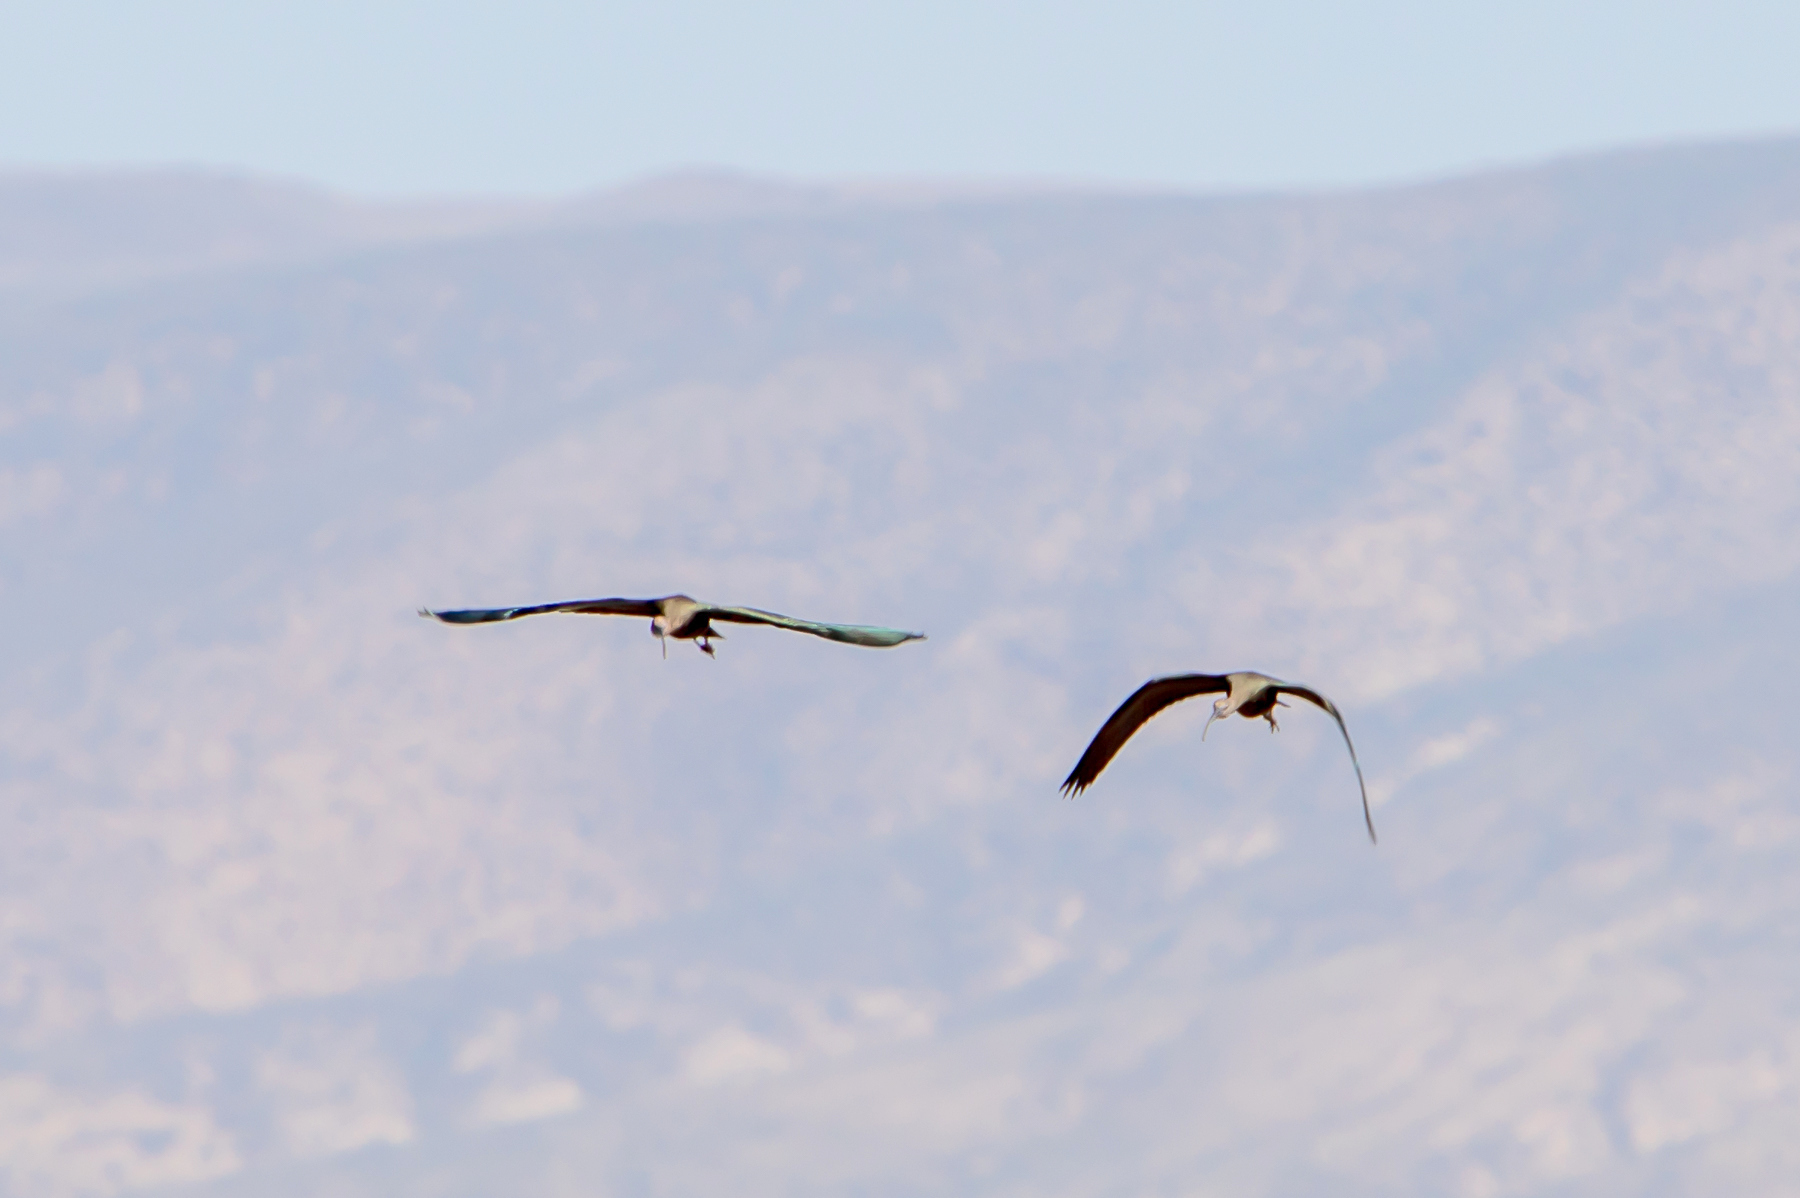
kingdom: Animalia
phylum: Chordata
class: Aves
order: Pelecaniformes
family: Threskiornithidae
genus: Plegadis
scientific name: Plegadis chihi
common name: White-faced ibis
